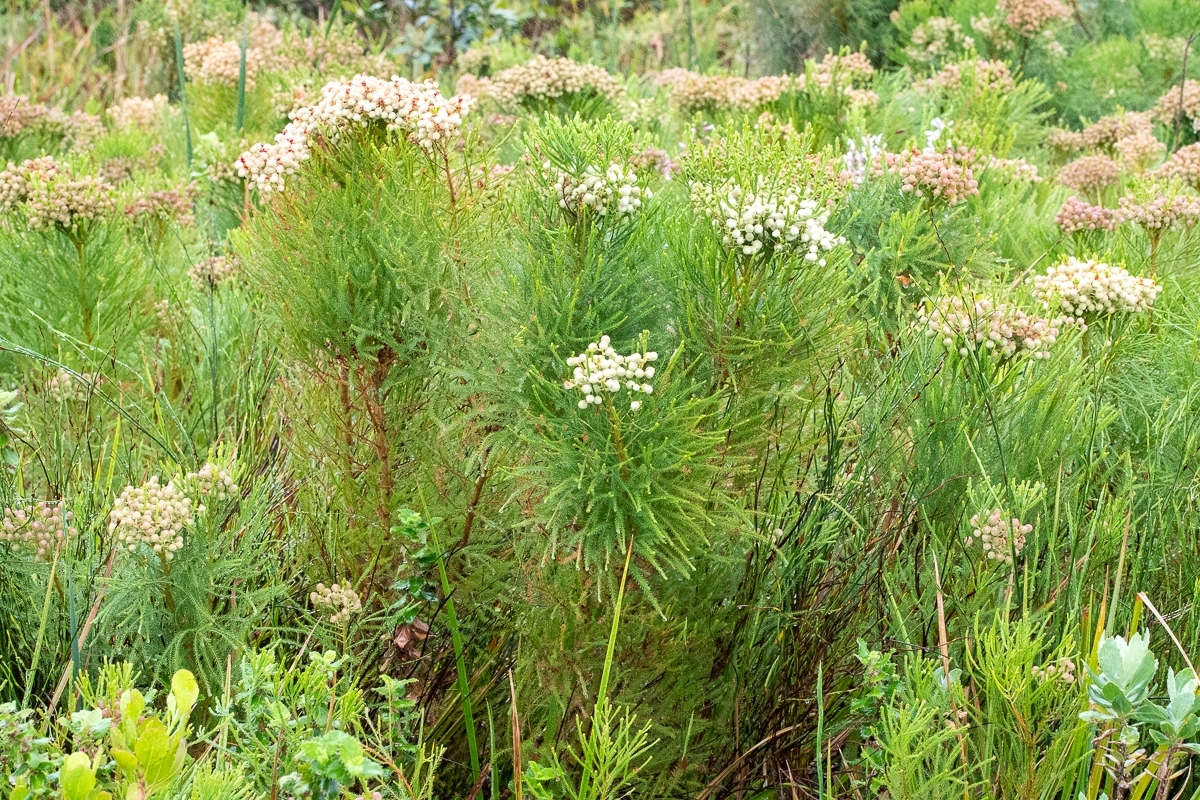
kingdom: Plantae
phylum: Tracheophyta
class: Magnoliopsida
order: Bruniales
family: Bruniaceae
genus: Berzelia
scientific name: Berzelia lanuginosa
